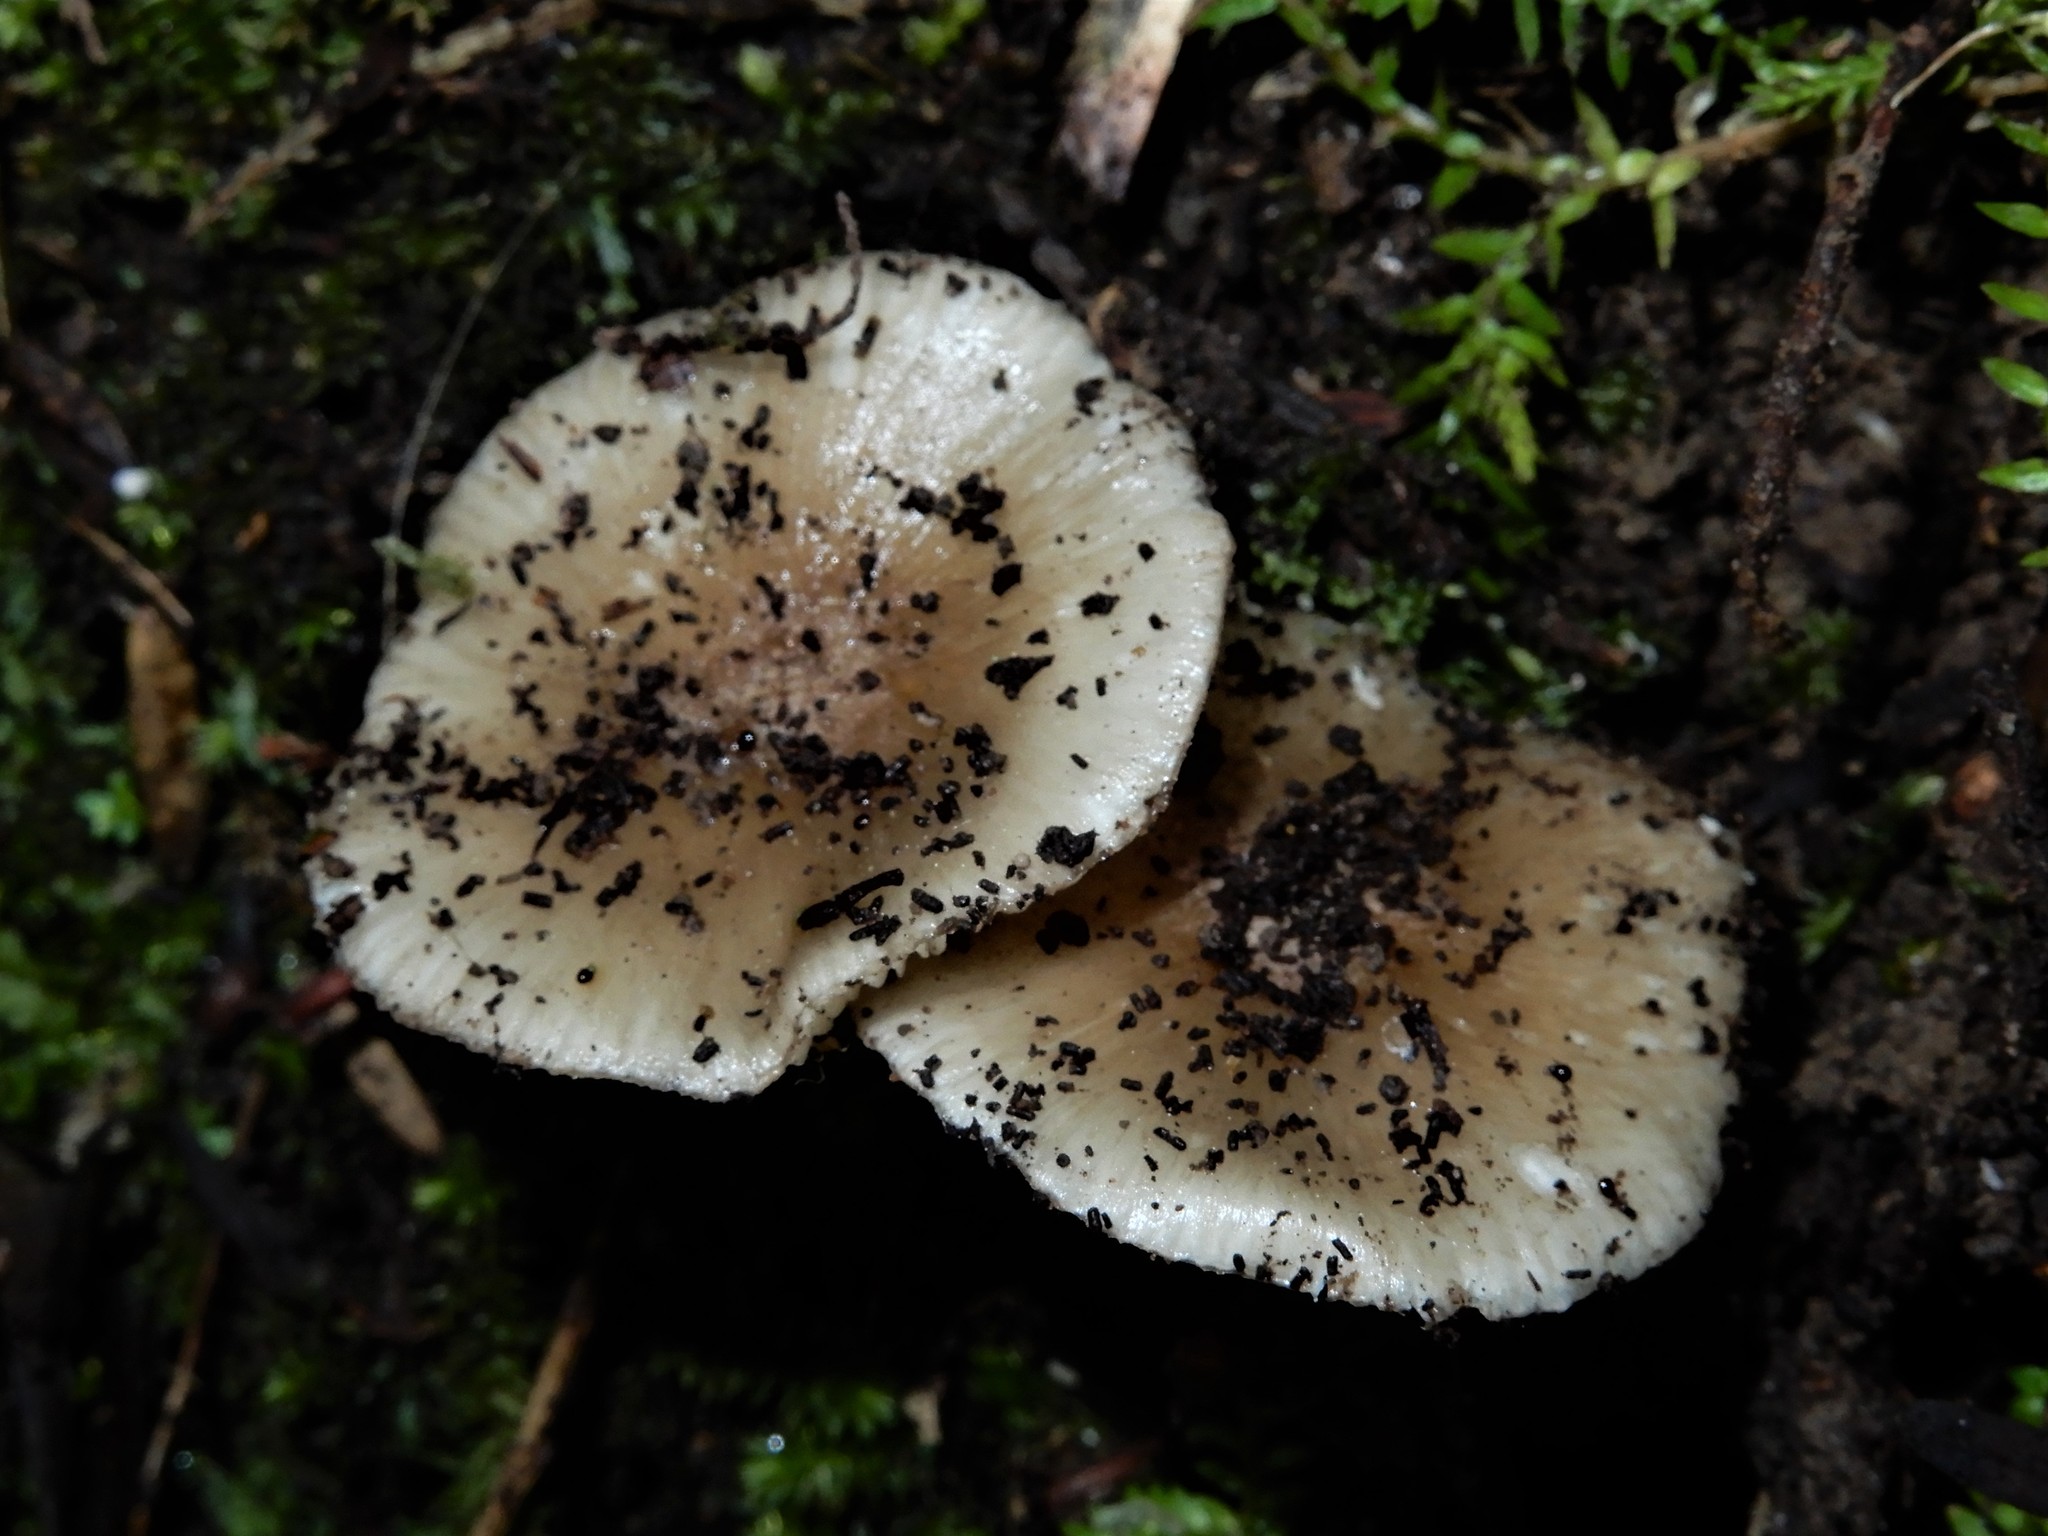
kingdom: Fungi
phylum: Basidiomycota
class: Agaricomycetes
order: Agaricales
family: Hygrophoraceae
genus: Cuphophyllus
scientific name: Cuphophyllus
